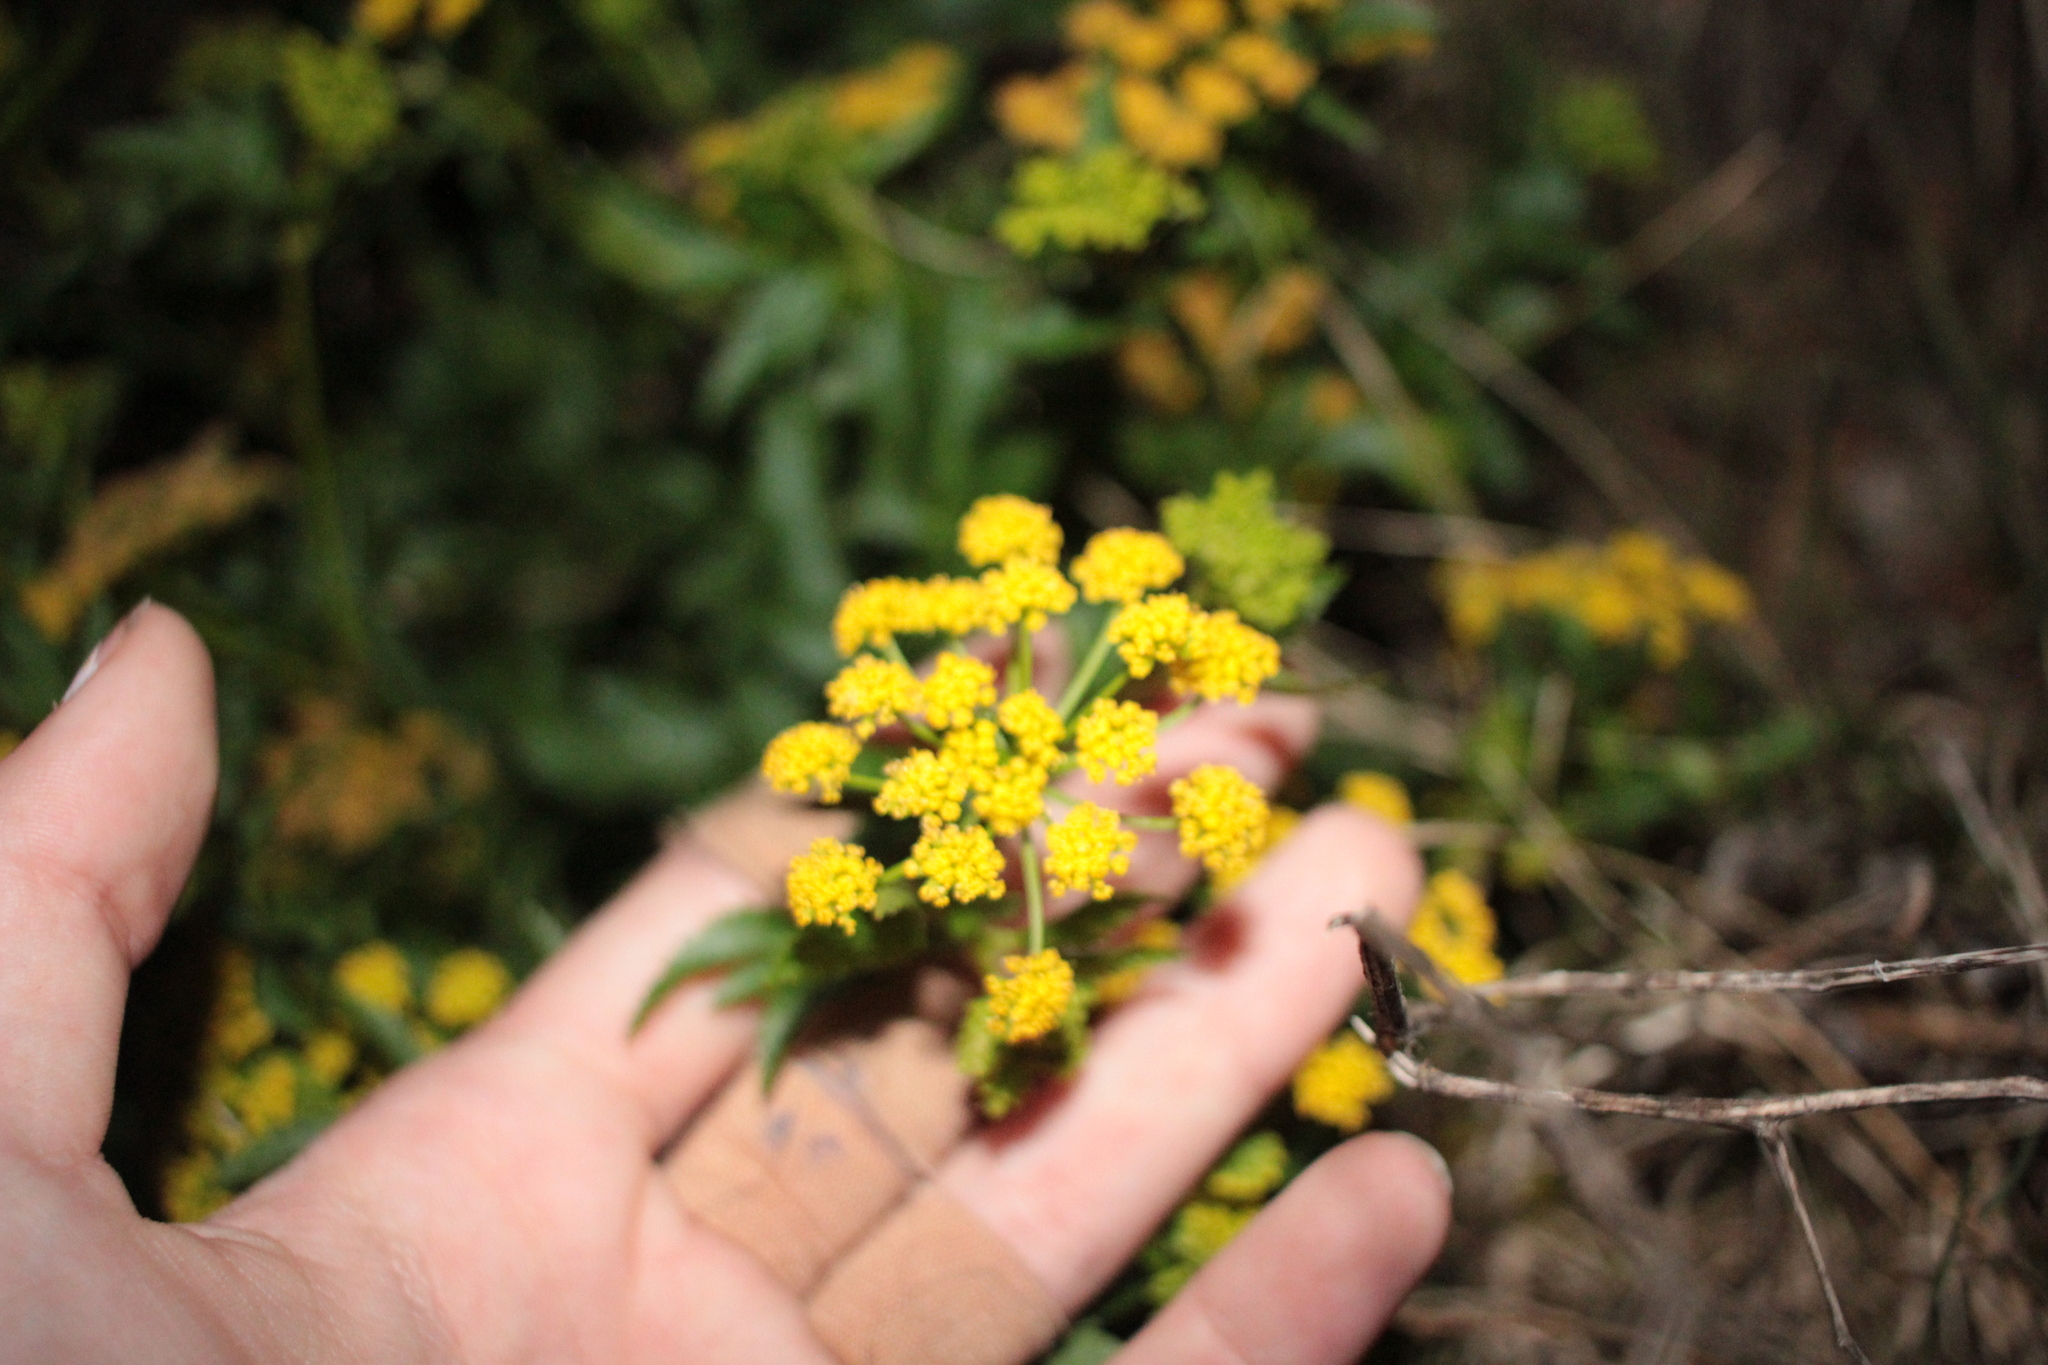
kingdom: Plantae
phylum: Tracheophyta
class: Magnoliopsida
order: Apiales
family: Apiaceae
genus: Zizia
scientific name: Zizia aurea
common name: Golden alexanders
